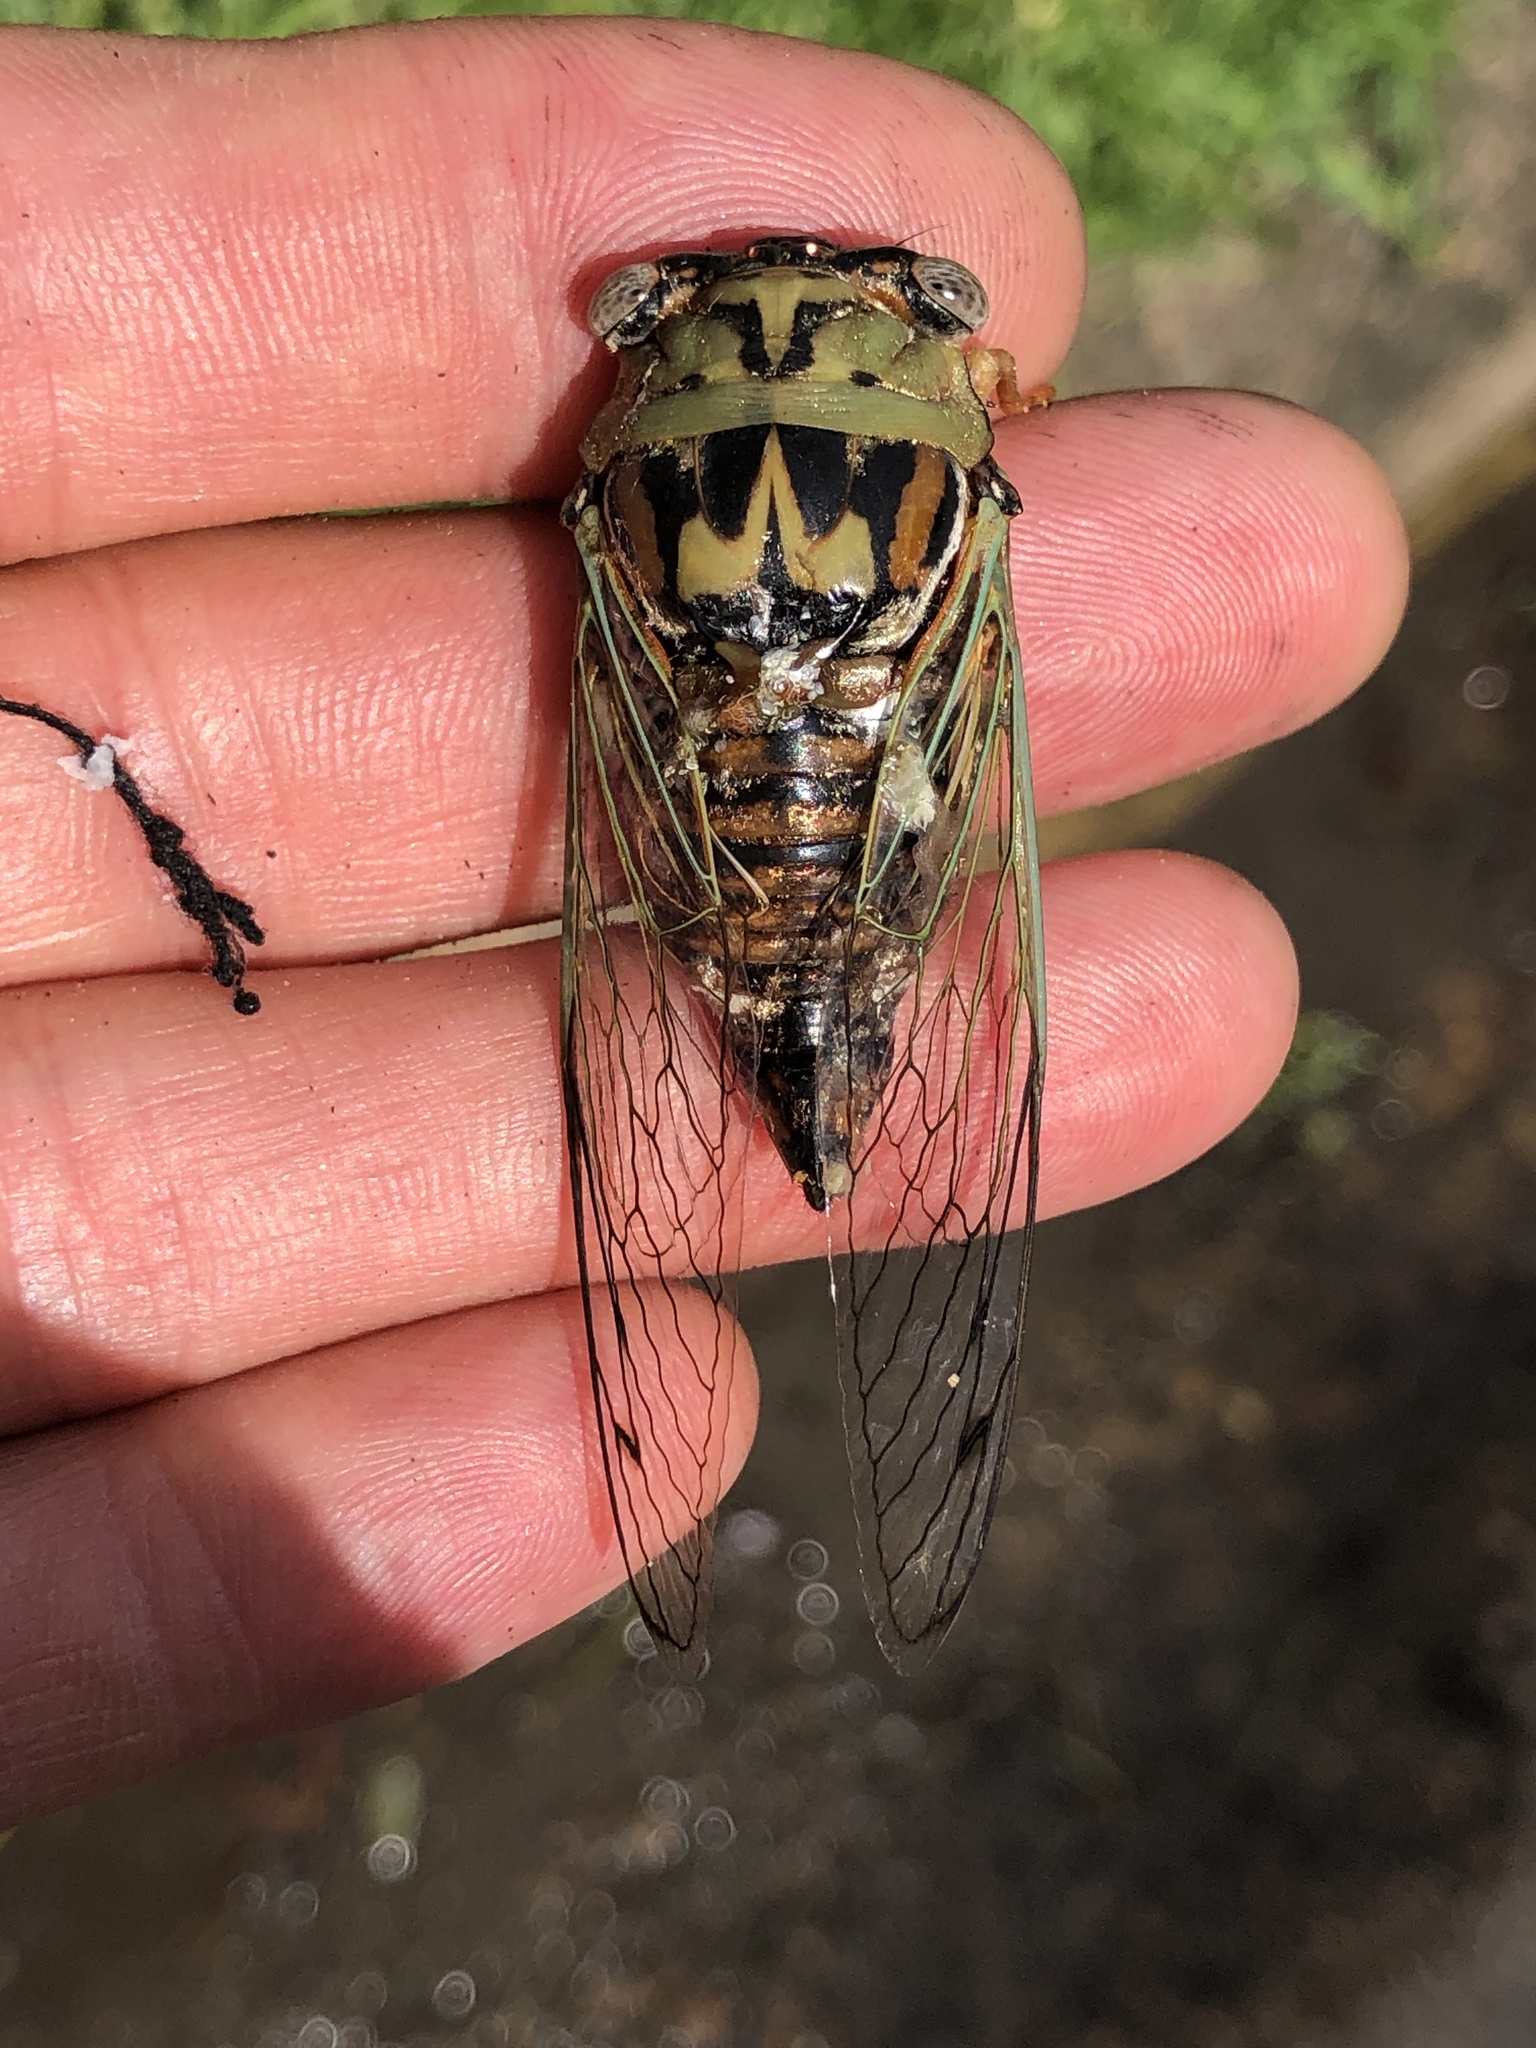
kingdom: Animalia
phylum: Arthropoda
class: Insecta
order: Hemiptera
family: Cicadidae
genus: Megatibicen
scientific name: Megatibicen resh
